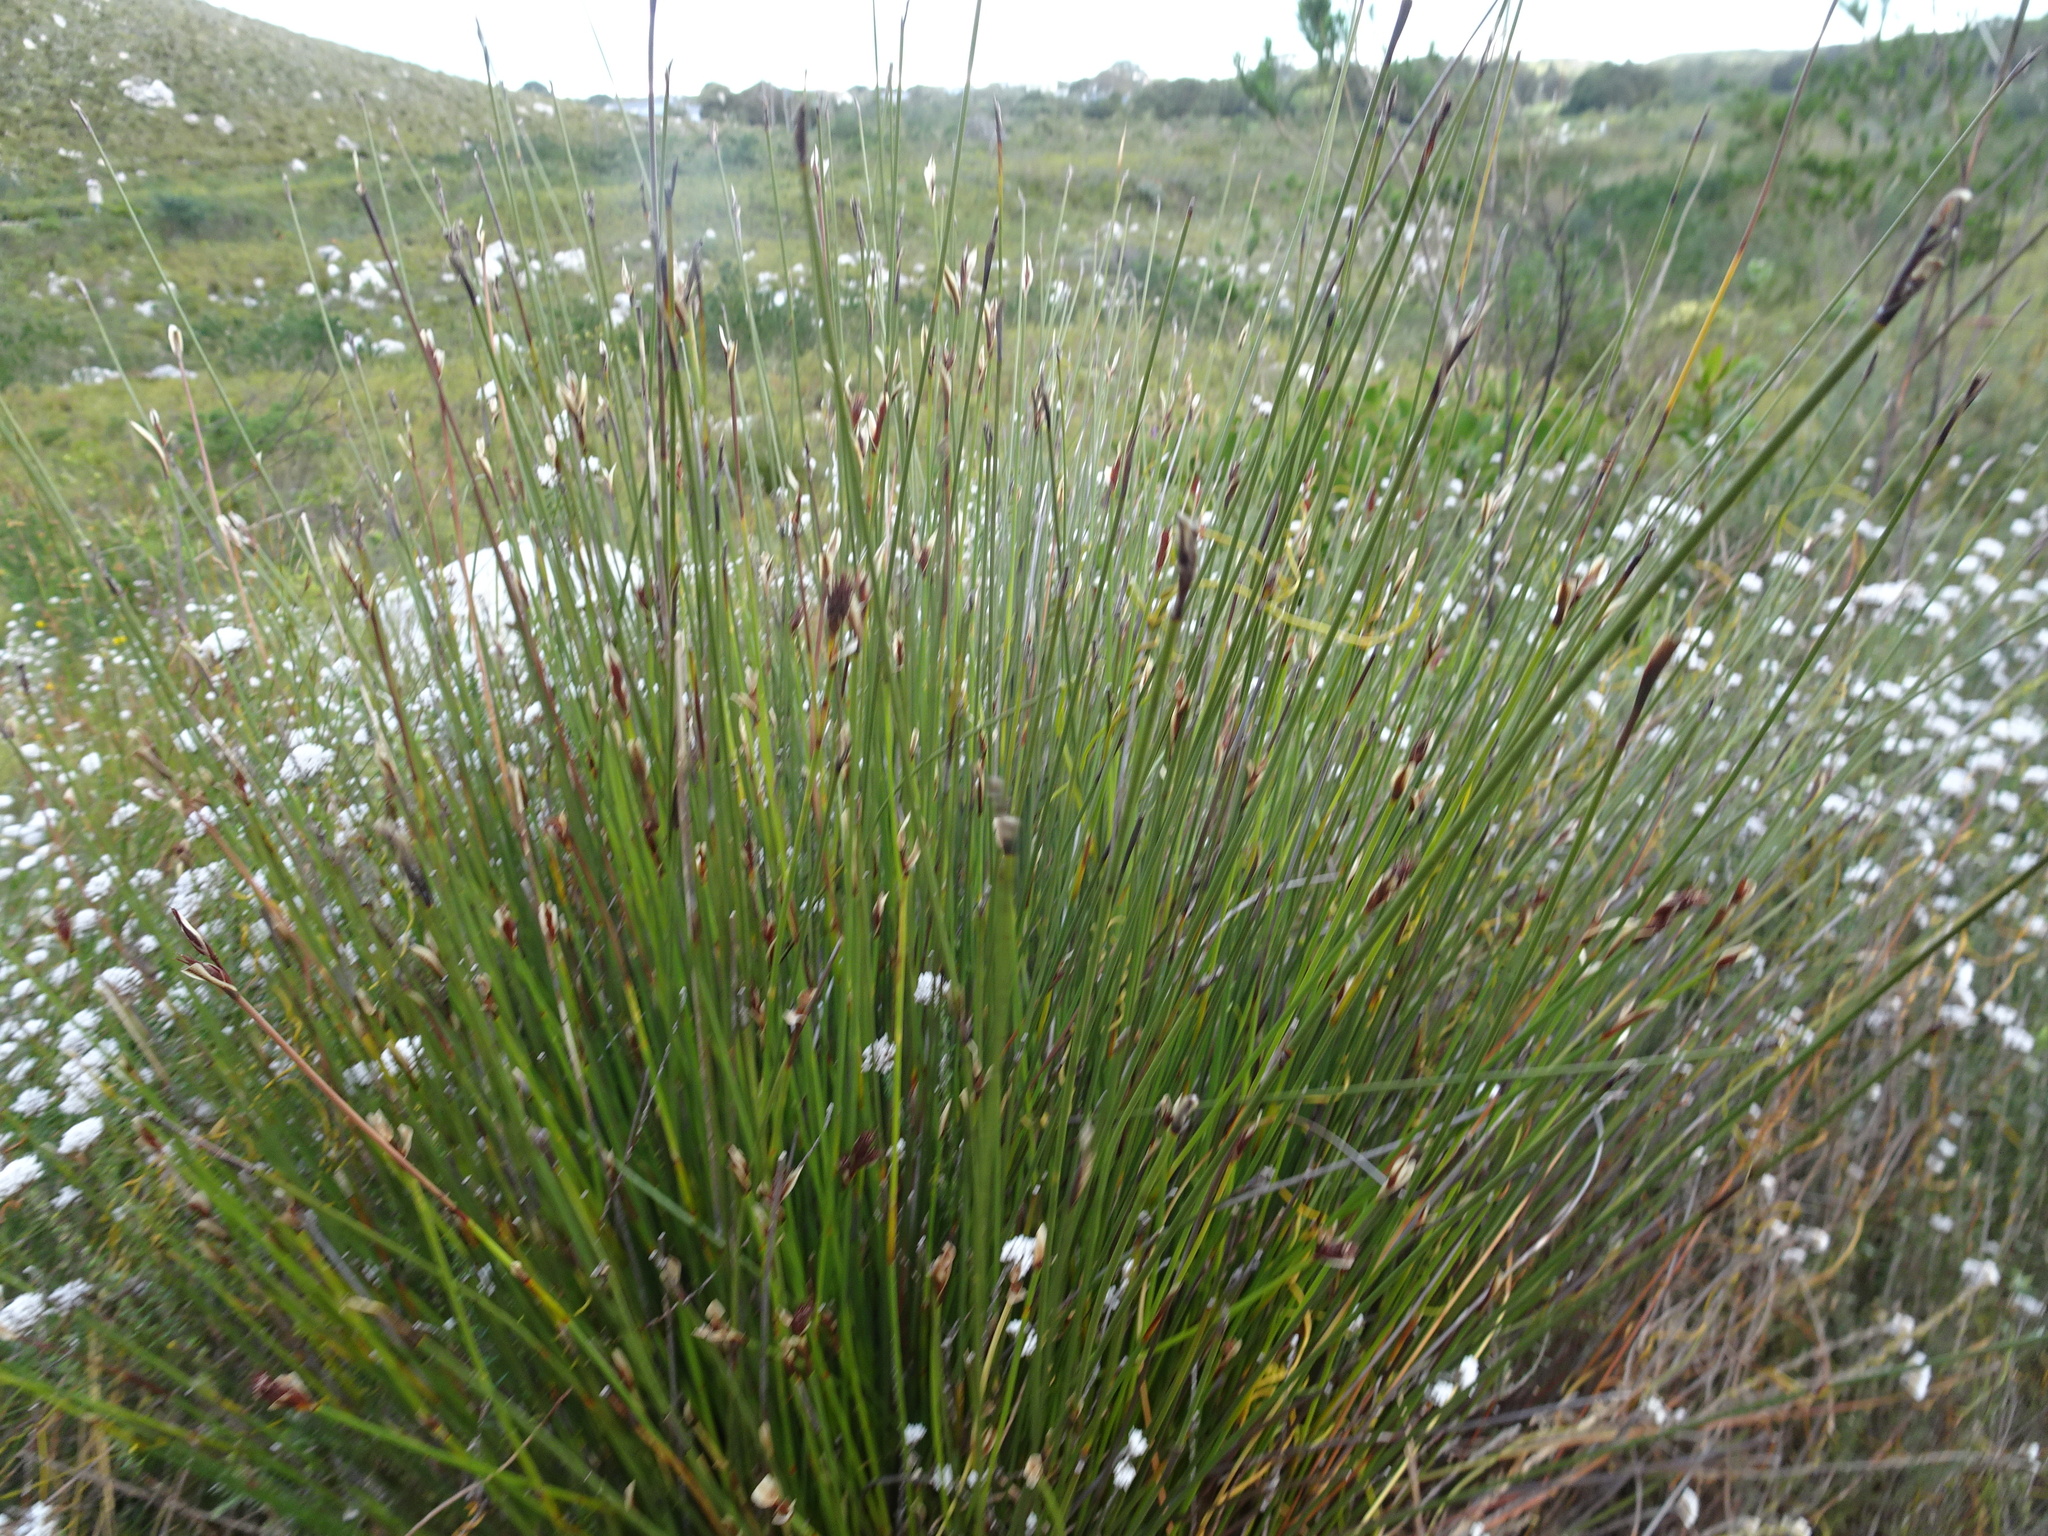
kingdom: Plantae
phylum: Tracheophyta
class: Liliopsida
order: Poales
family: Restionaceae
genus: Hypodiscus
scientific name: Hypodiscus aristatus
